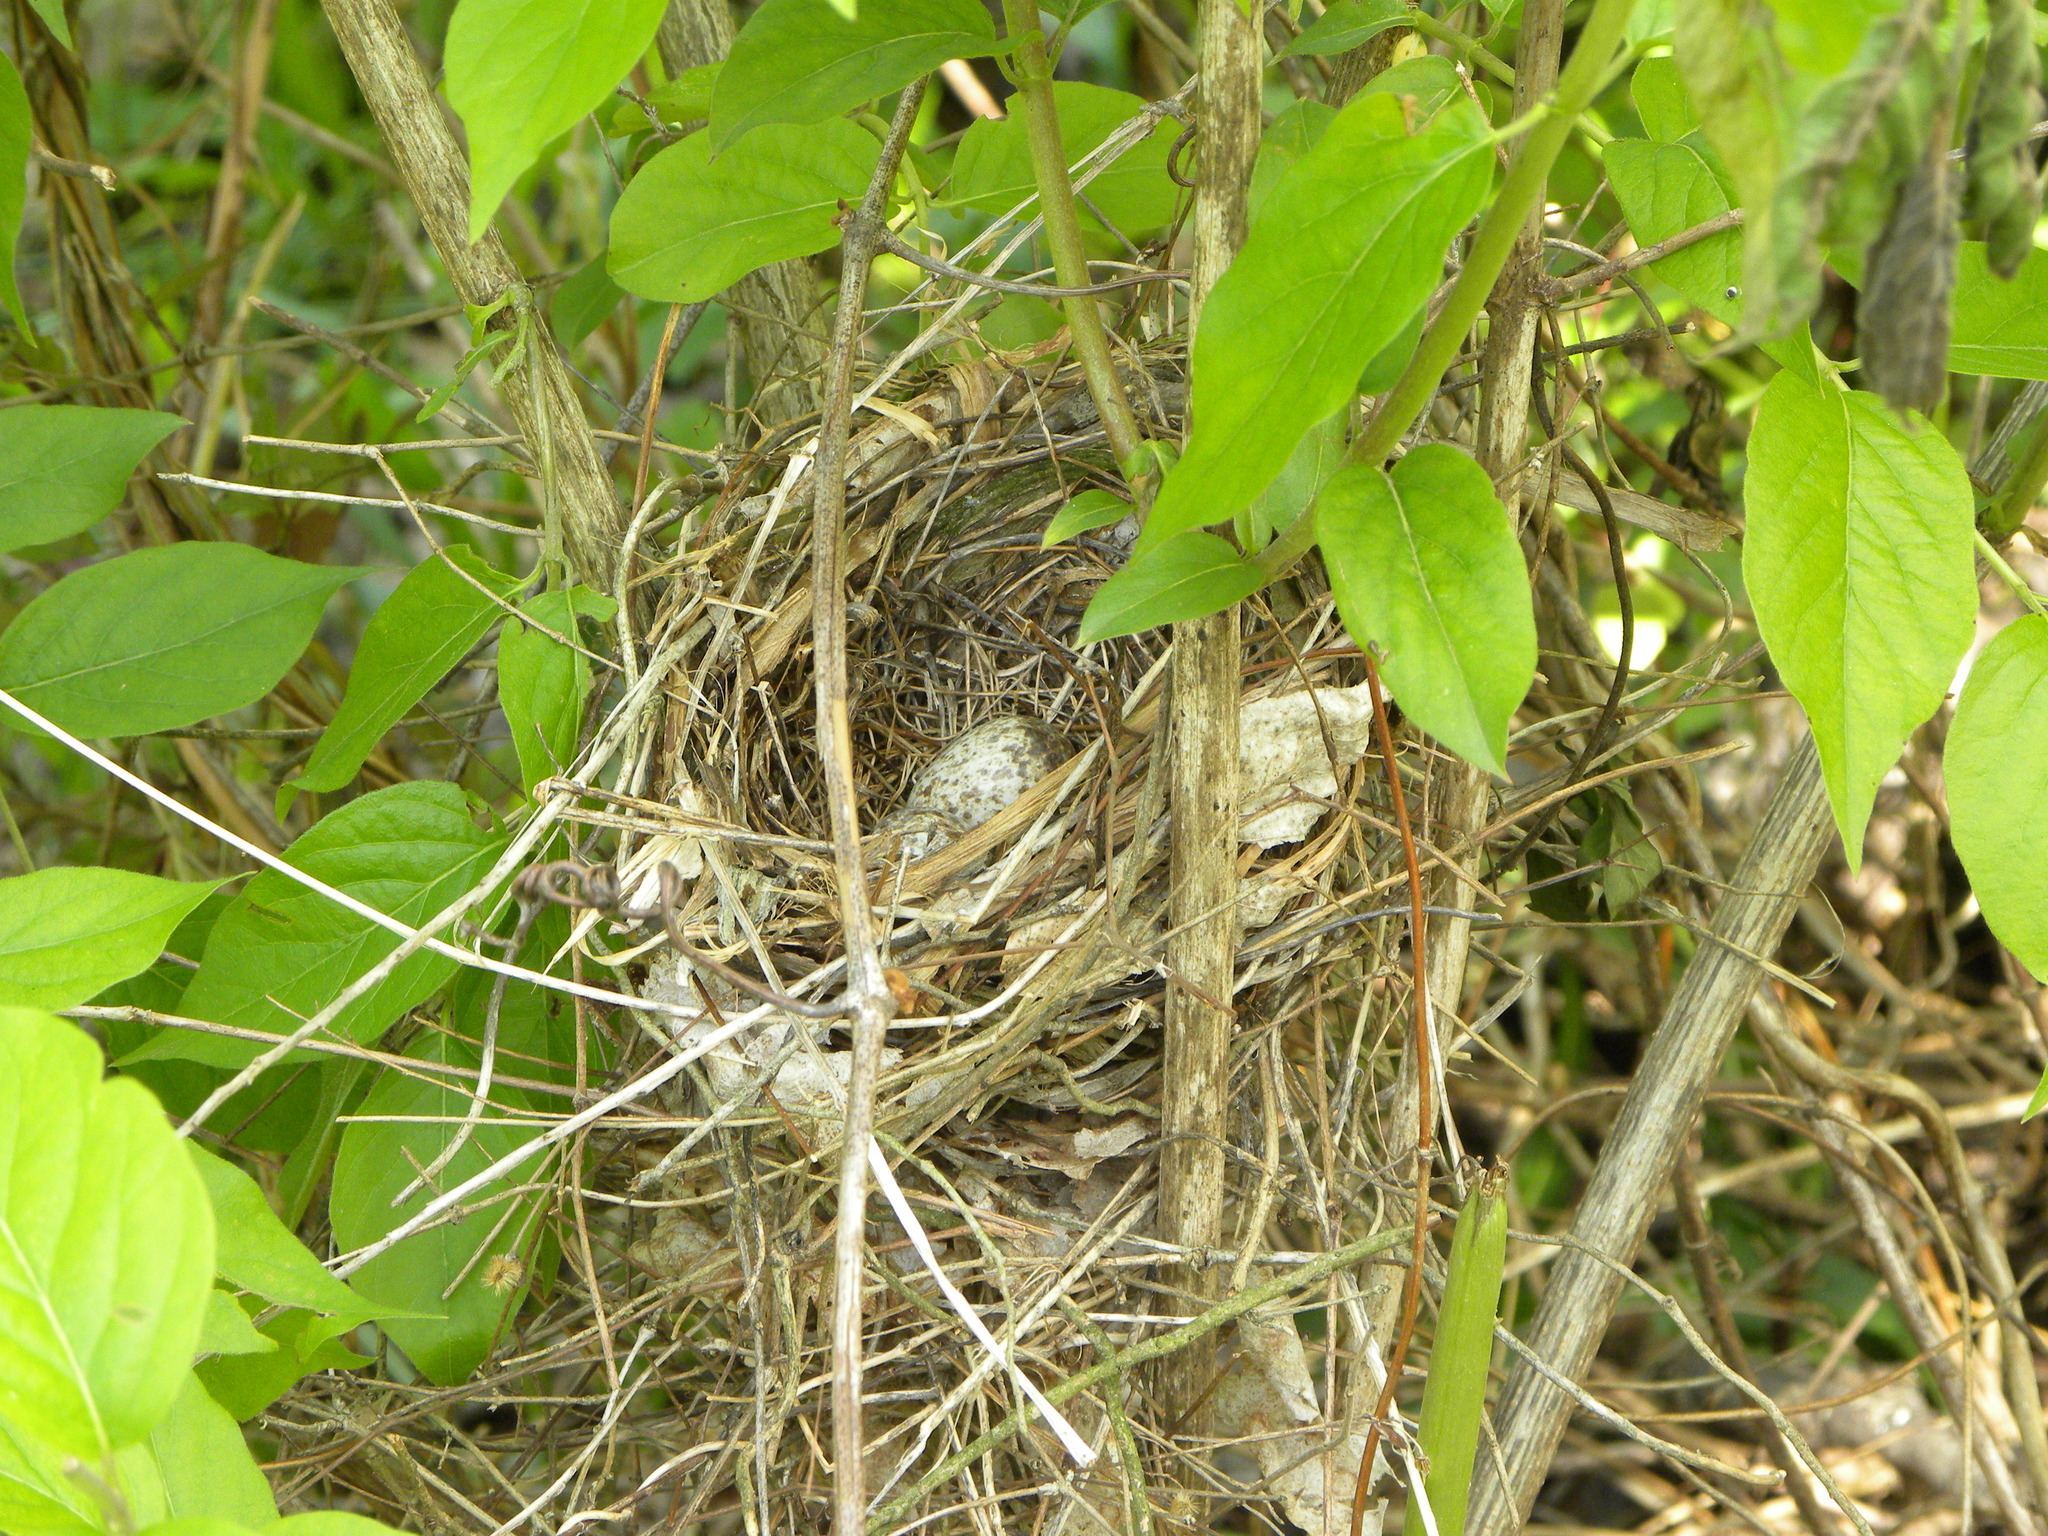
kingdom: Animalia
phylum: Chordata
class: Aves
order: Passeriformes
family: Cardinalidae
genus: Cardinalis
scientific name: Cardinalis cardinalis
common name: Northern cardinal
